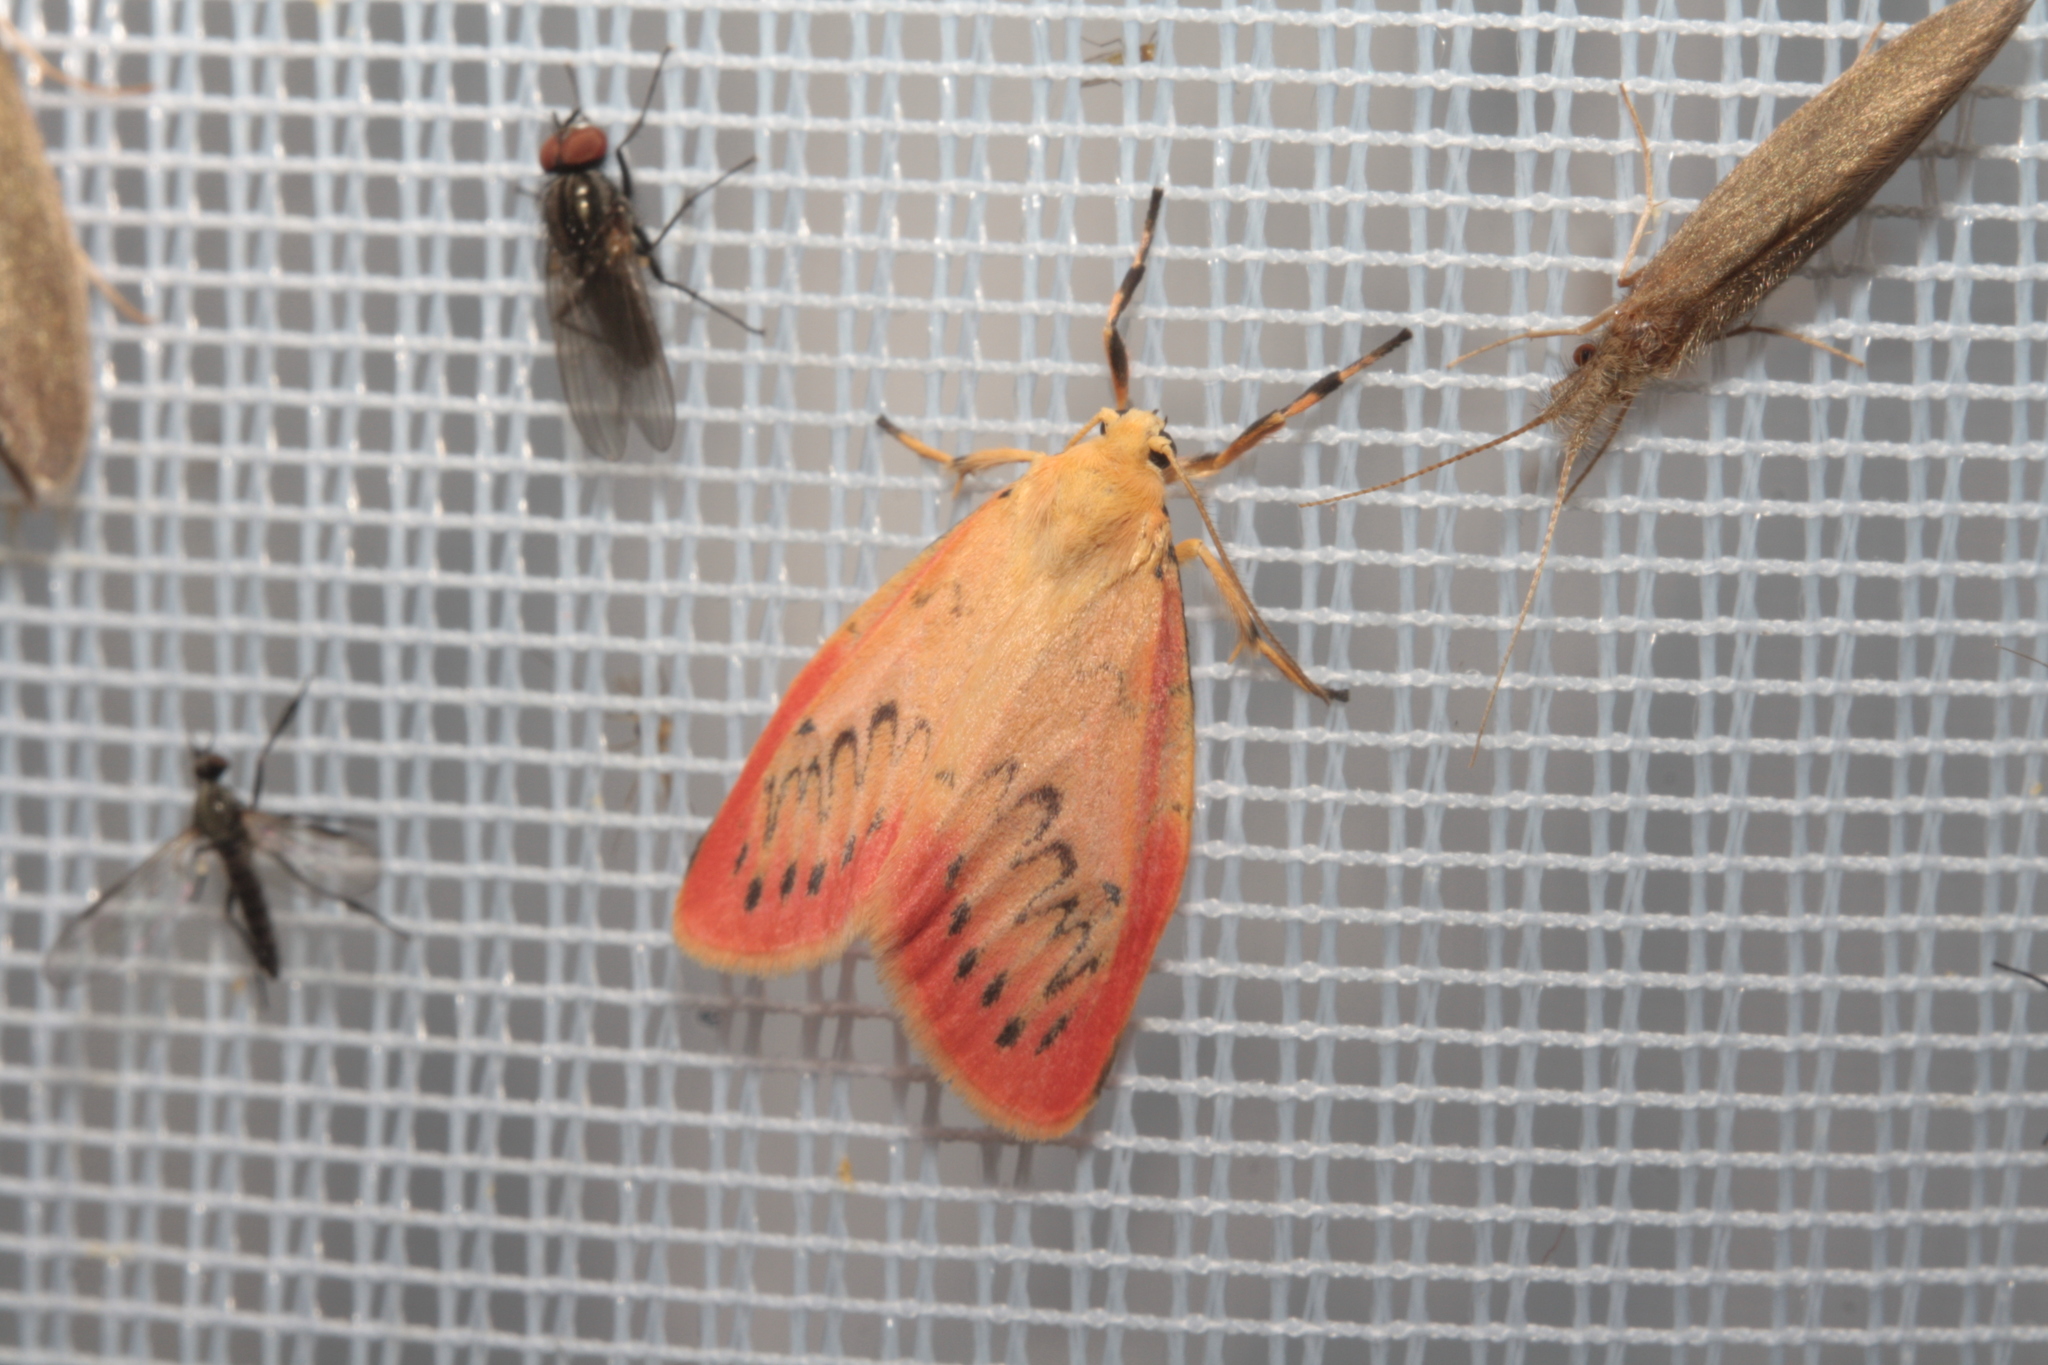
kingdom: Animalia
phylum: Arthropoda
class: Insecta
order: Lepidoptera
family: Erebidae
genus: Miltochrista
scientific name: Miltochrista miniata
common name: Rosy footman
